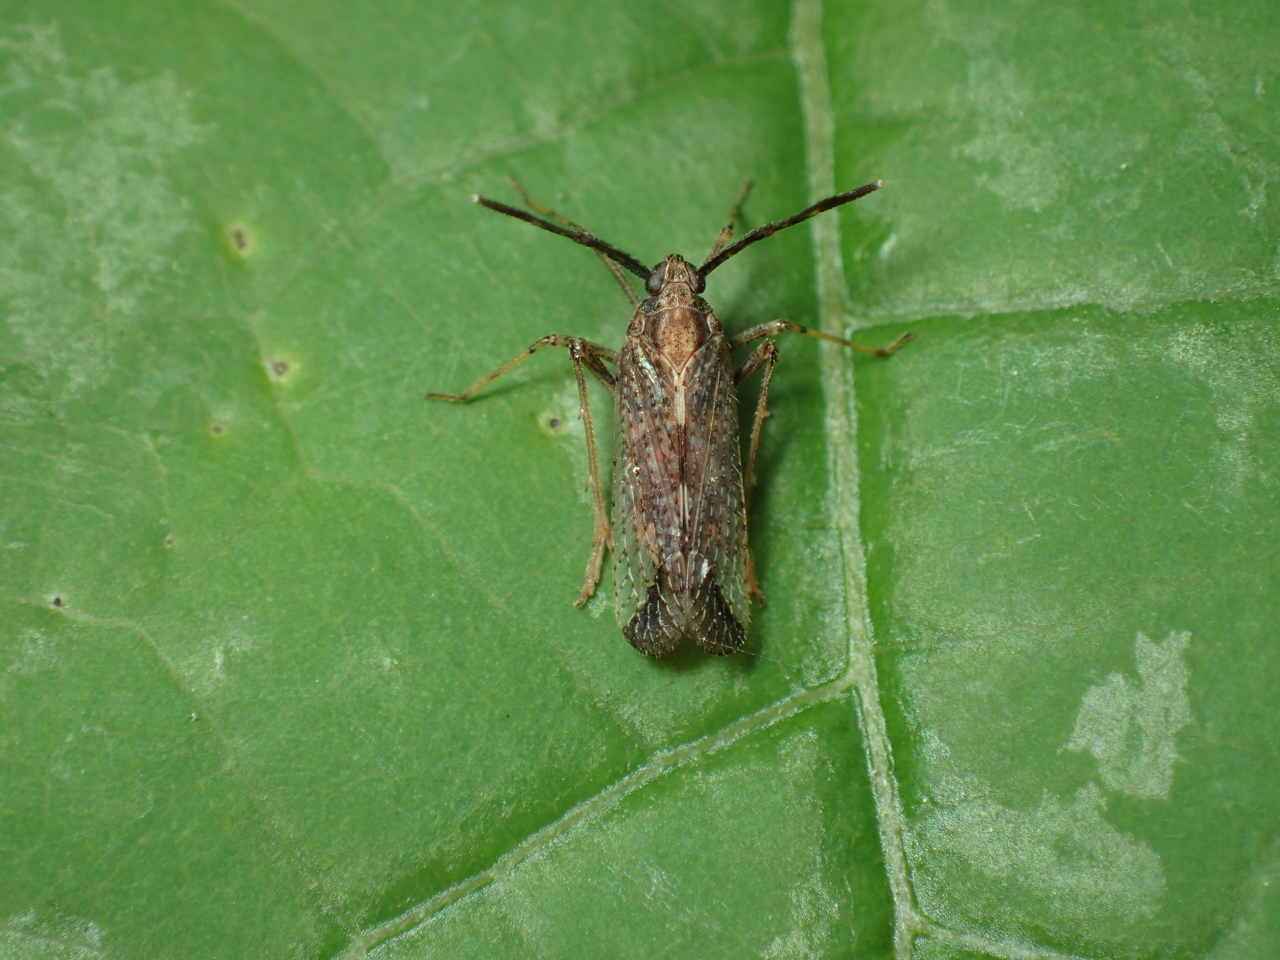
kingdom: Animalia
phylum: Arthropoda
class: Insecta
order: Hemiptera
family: Delphacidae
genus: Copicerus
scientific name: Copicerus irroratus
